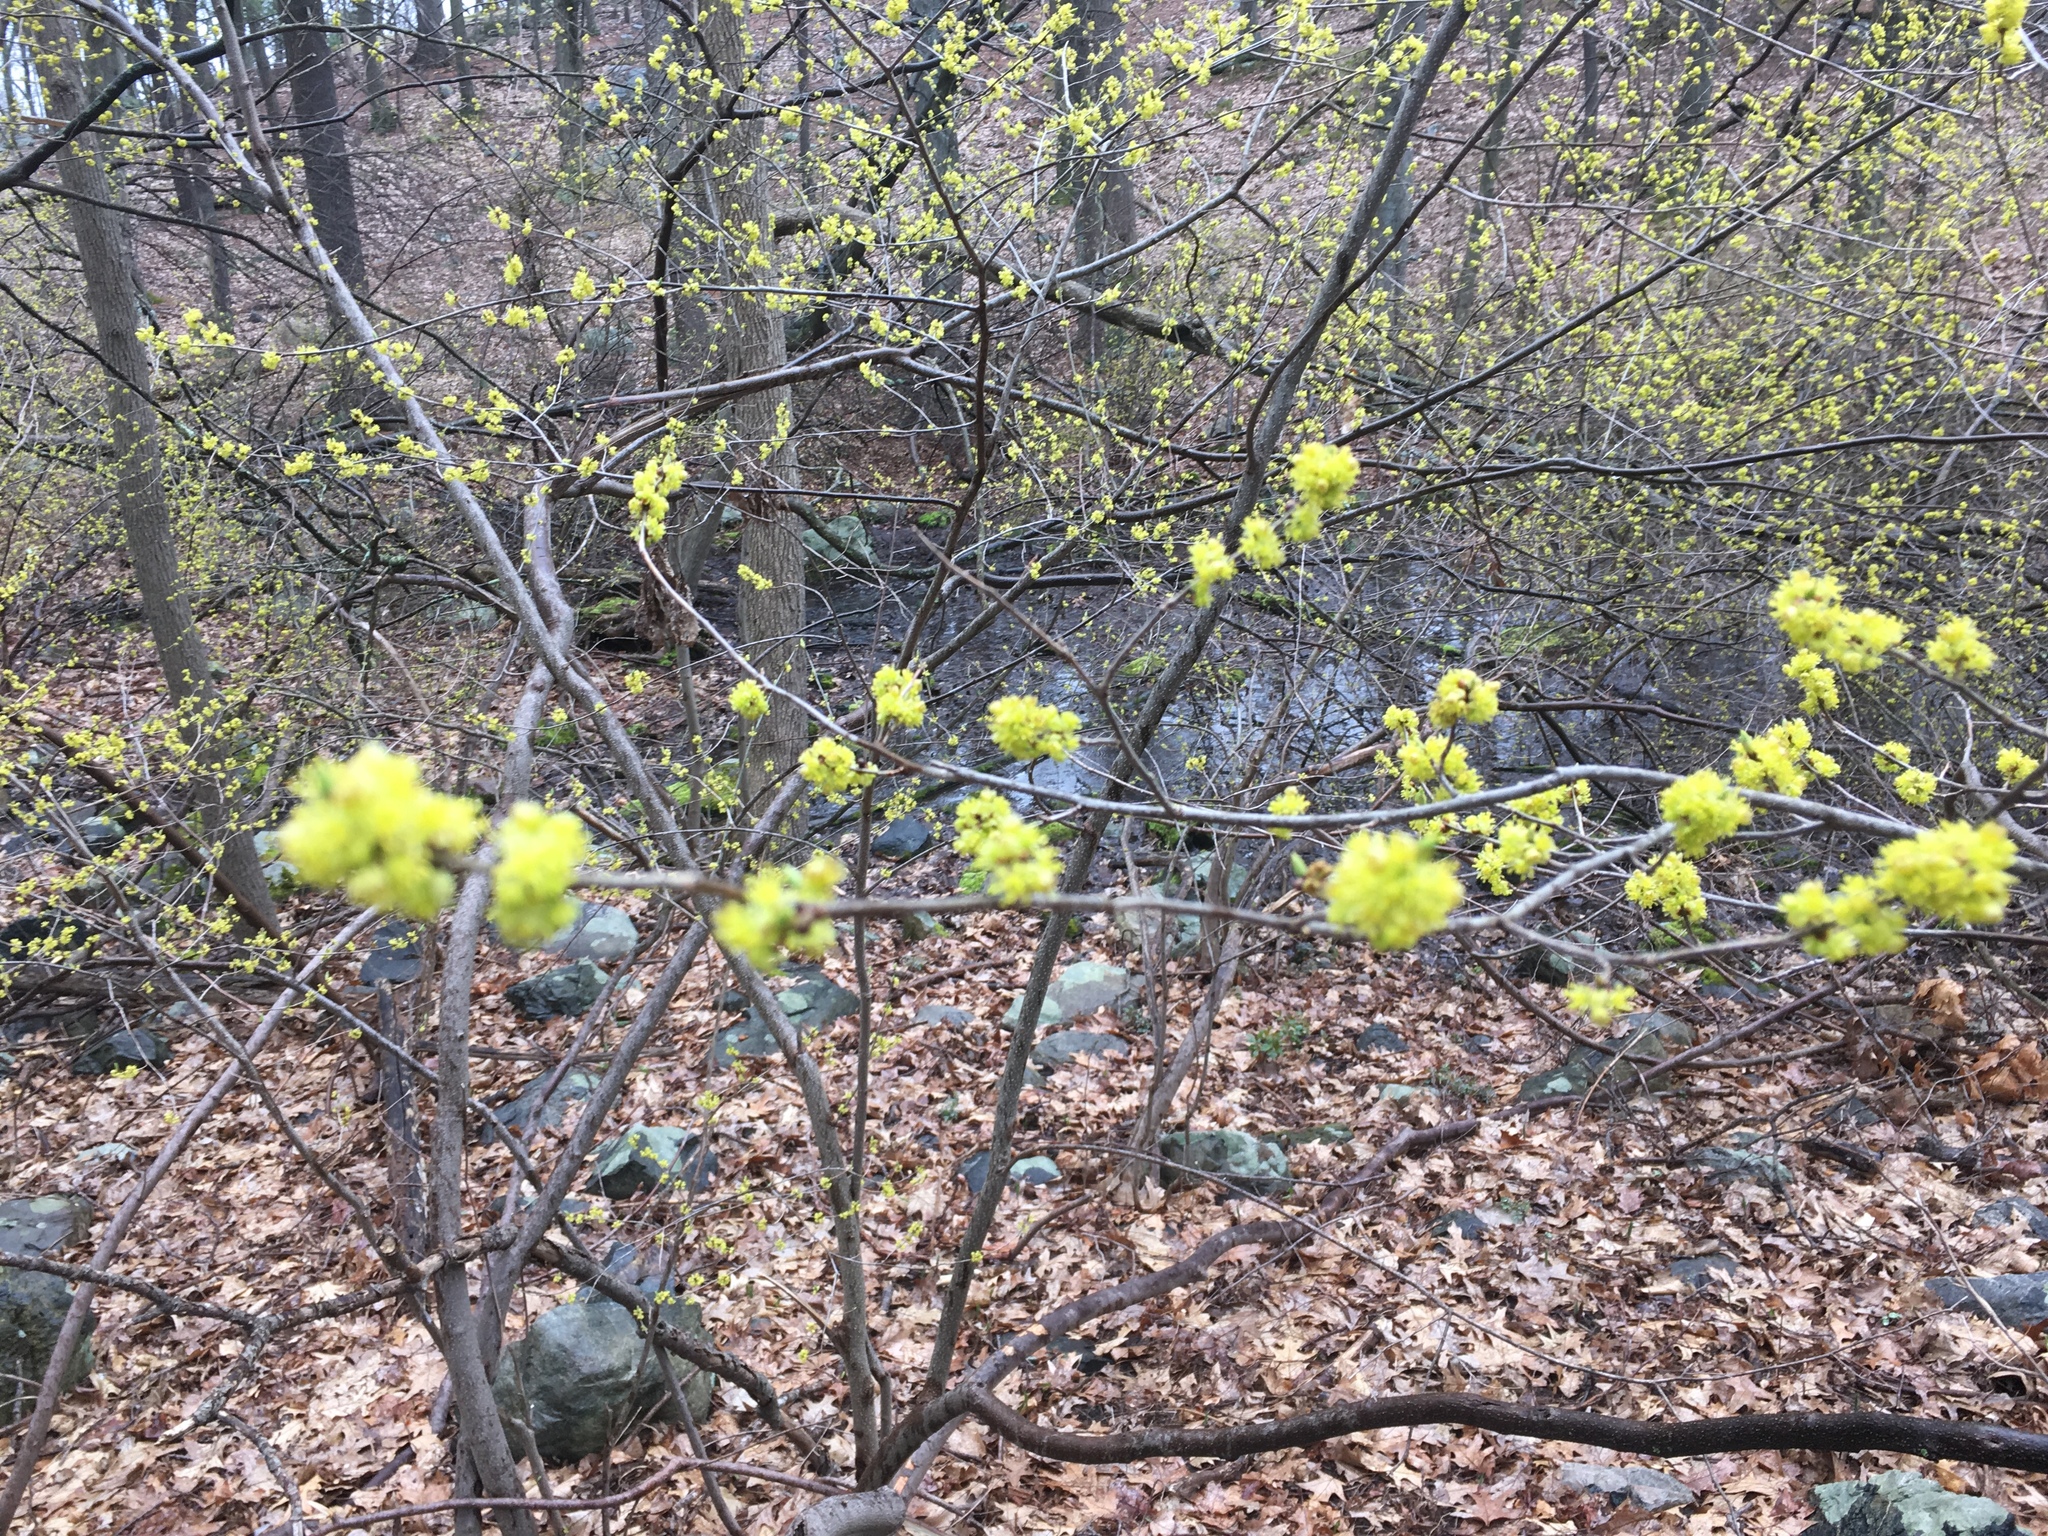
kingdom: Plantae
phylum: Tracheophyta
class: Magnoliopsida
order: Laurales
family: Lauraceae
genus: Lindera
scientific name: Lindera benzoin
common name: Spicebush
